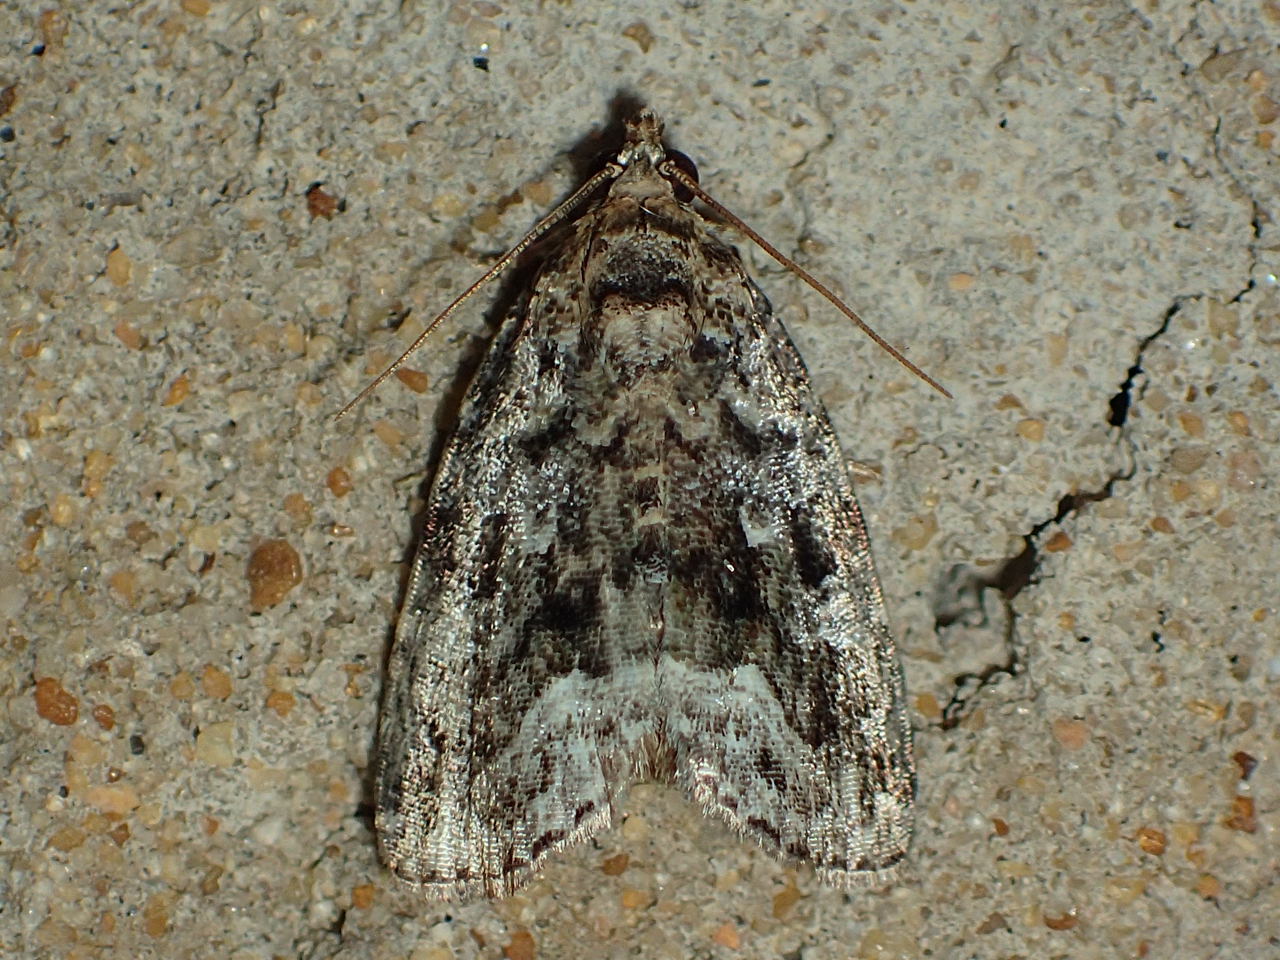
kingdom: Animalia
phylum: Arthropoda
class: Insecta
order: Lepidoptera
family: Noctuidae
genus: Protodeltote
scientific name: Protodeltote muscosula
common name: Large mossy glyph
